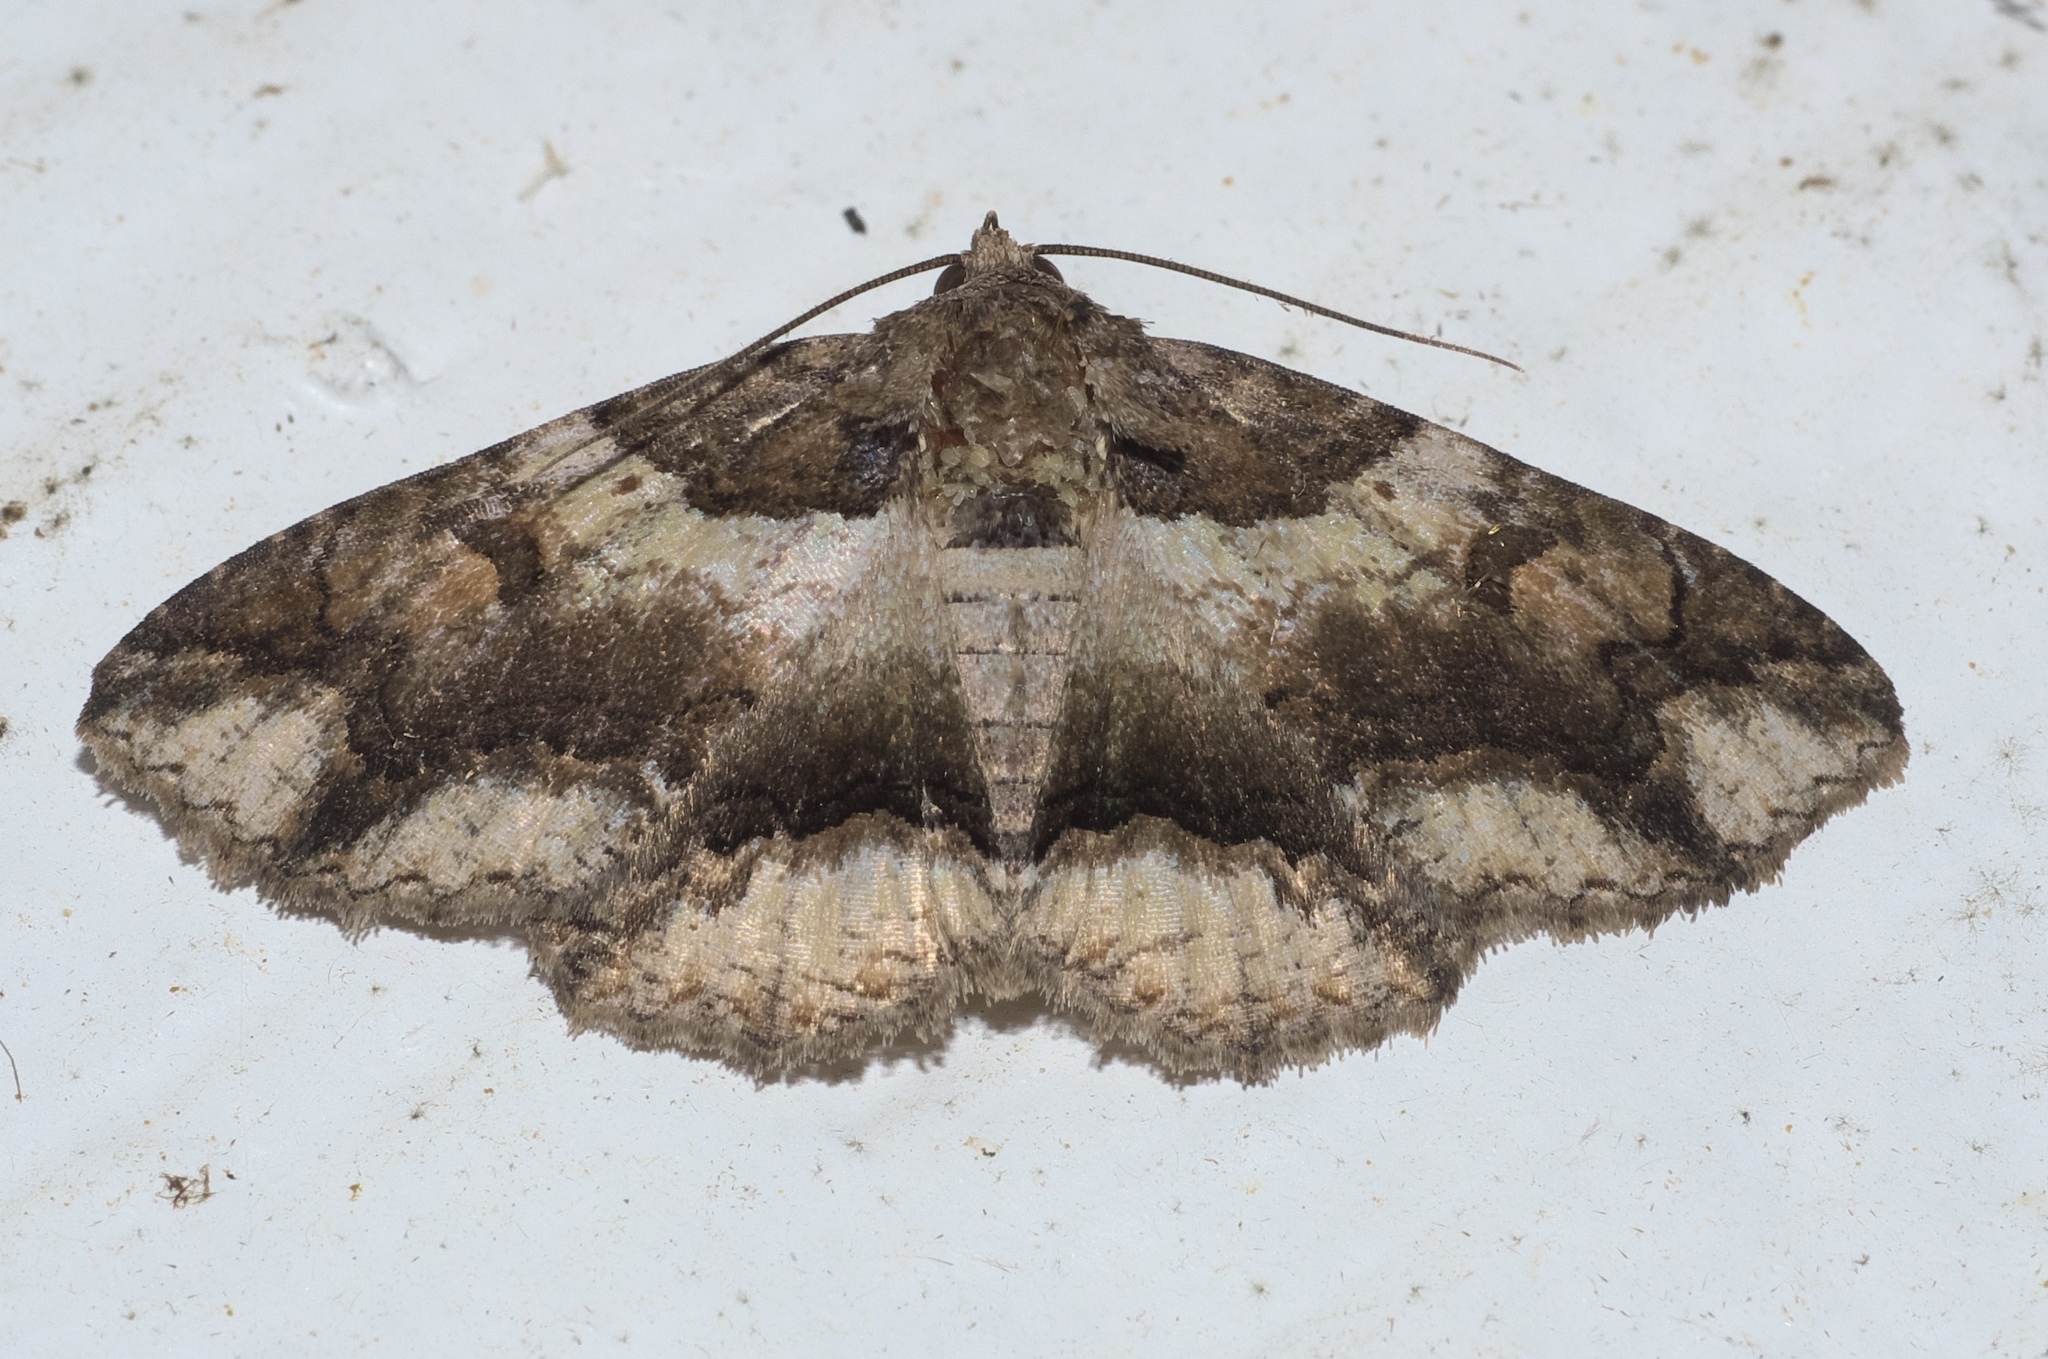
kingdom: Animalia
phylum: Arthropoda
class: Insecta
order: Lepidoptera
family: Erebidae
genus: Zale
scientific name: Zale minerea
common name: Colorful zale moth
